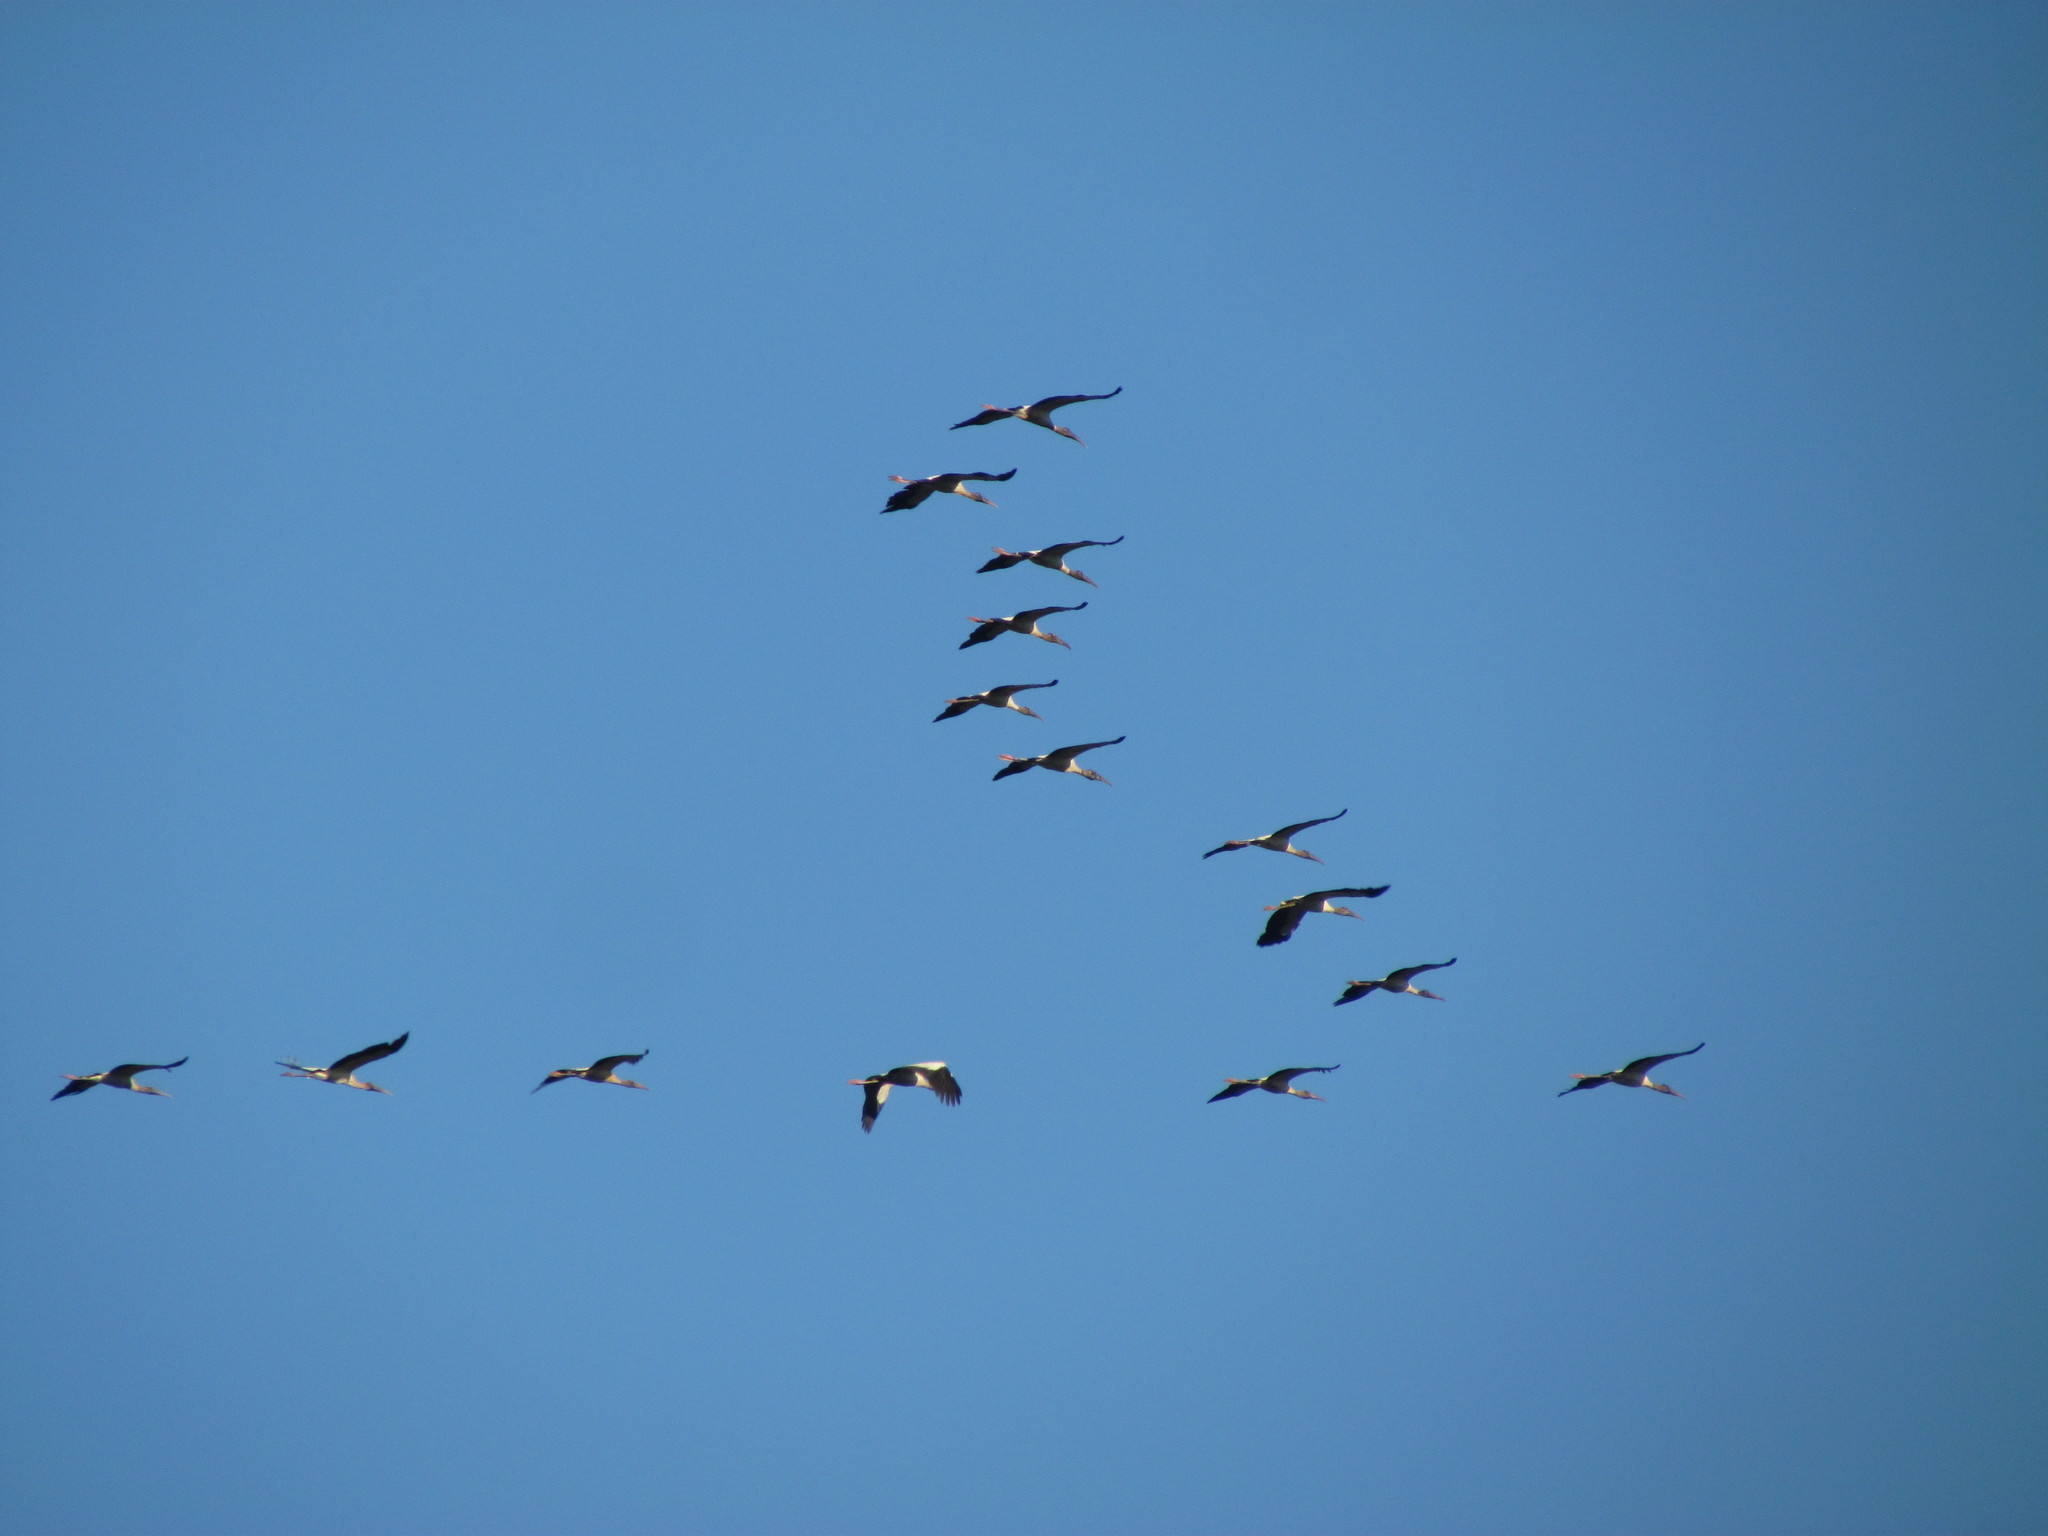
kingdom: Animalia
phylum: Chordata
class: Aves
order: Ciconiiformes
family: Ciconiidae
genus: Mycteria
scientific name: Mycteria americana
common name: Wood stork
